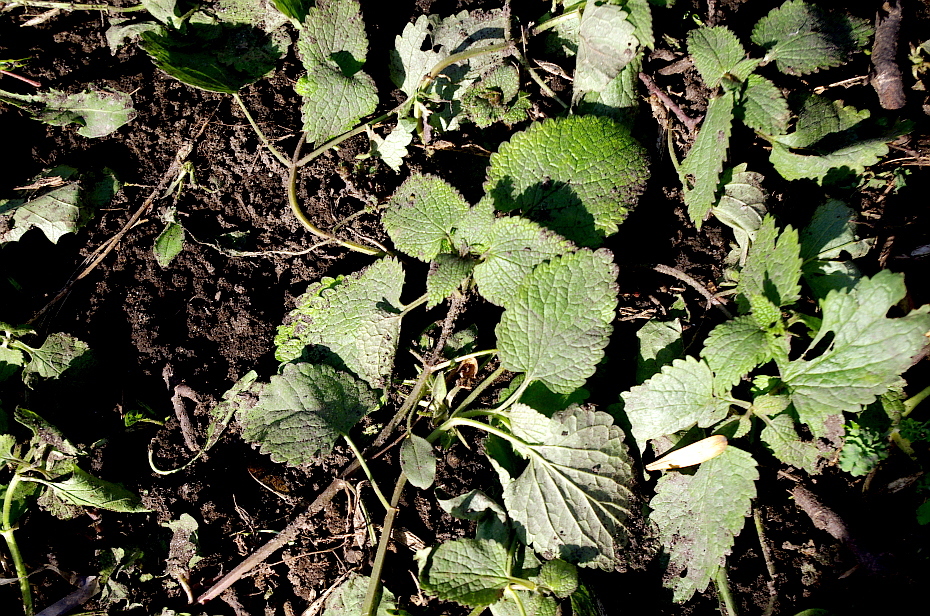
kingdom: Plantae
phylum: Tracheophyta
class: Magnoliopsida
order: Lamiales
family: Lamiaceae
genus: Lamium
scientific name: Lamium album
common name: White dead-nettle
